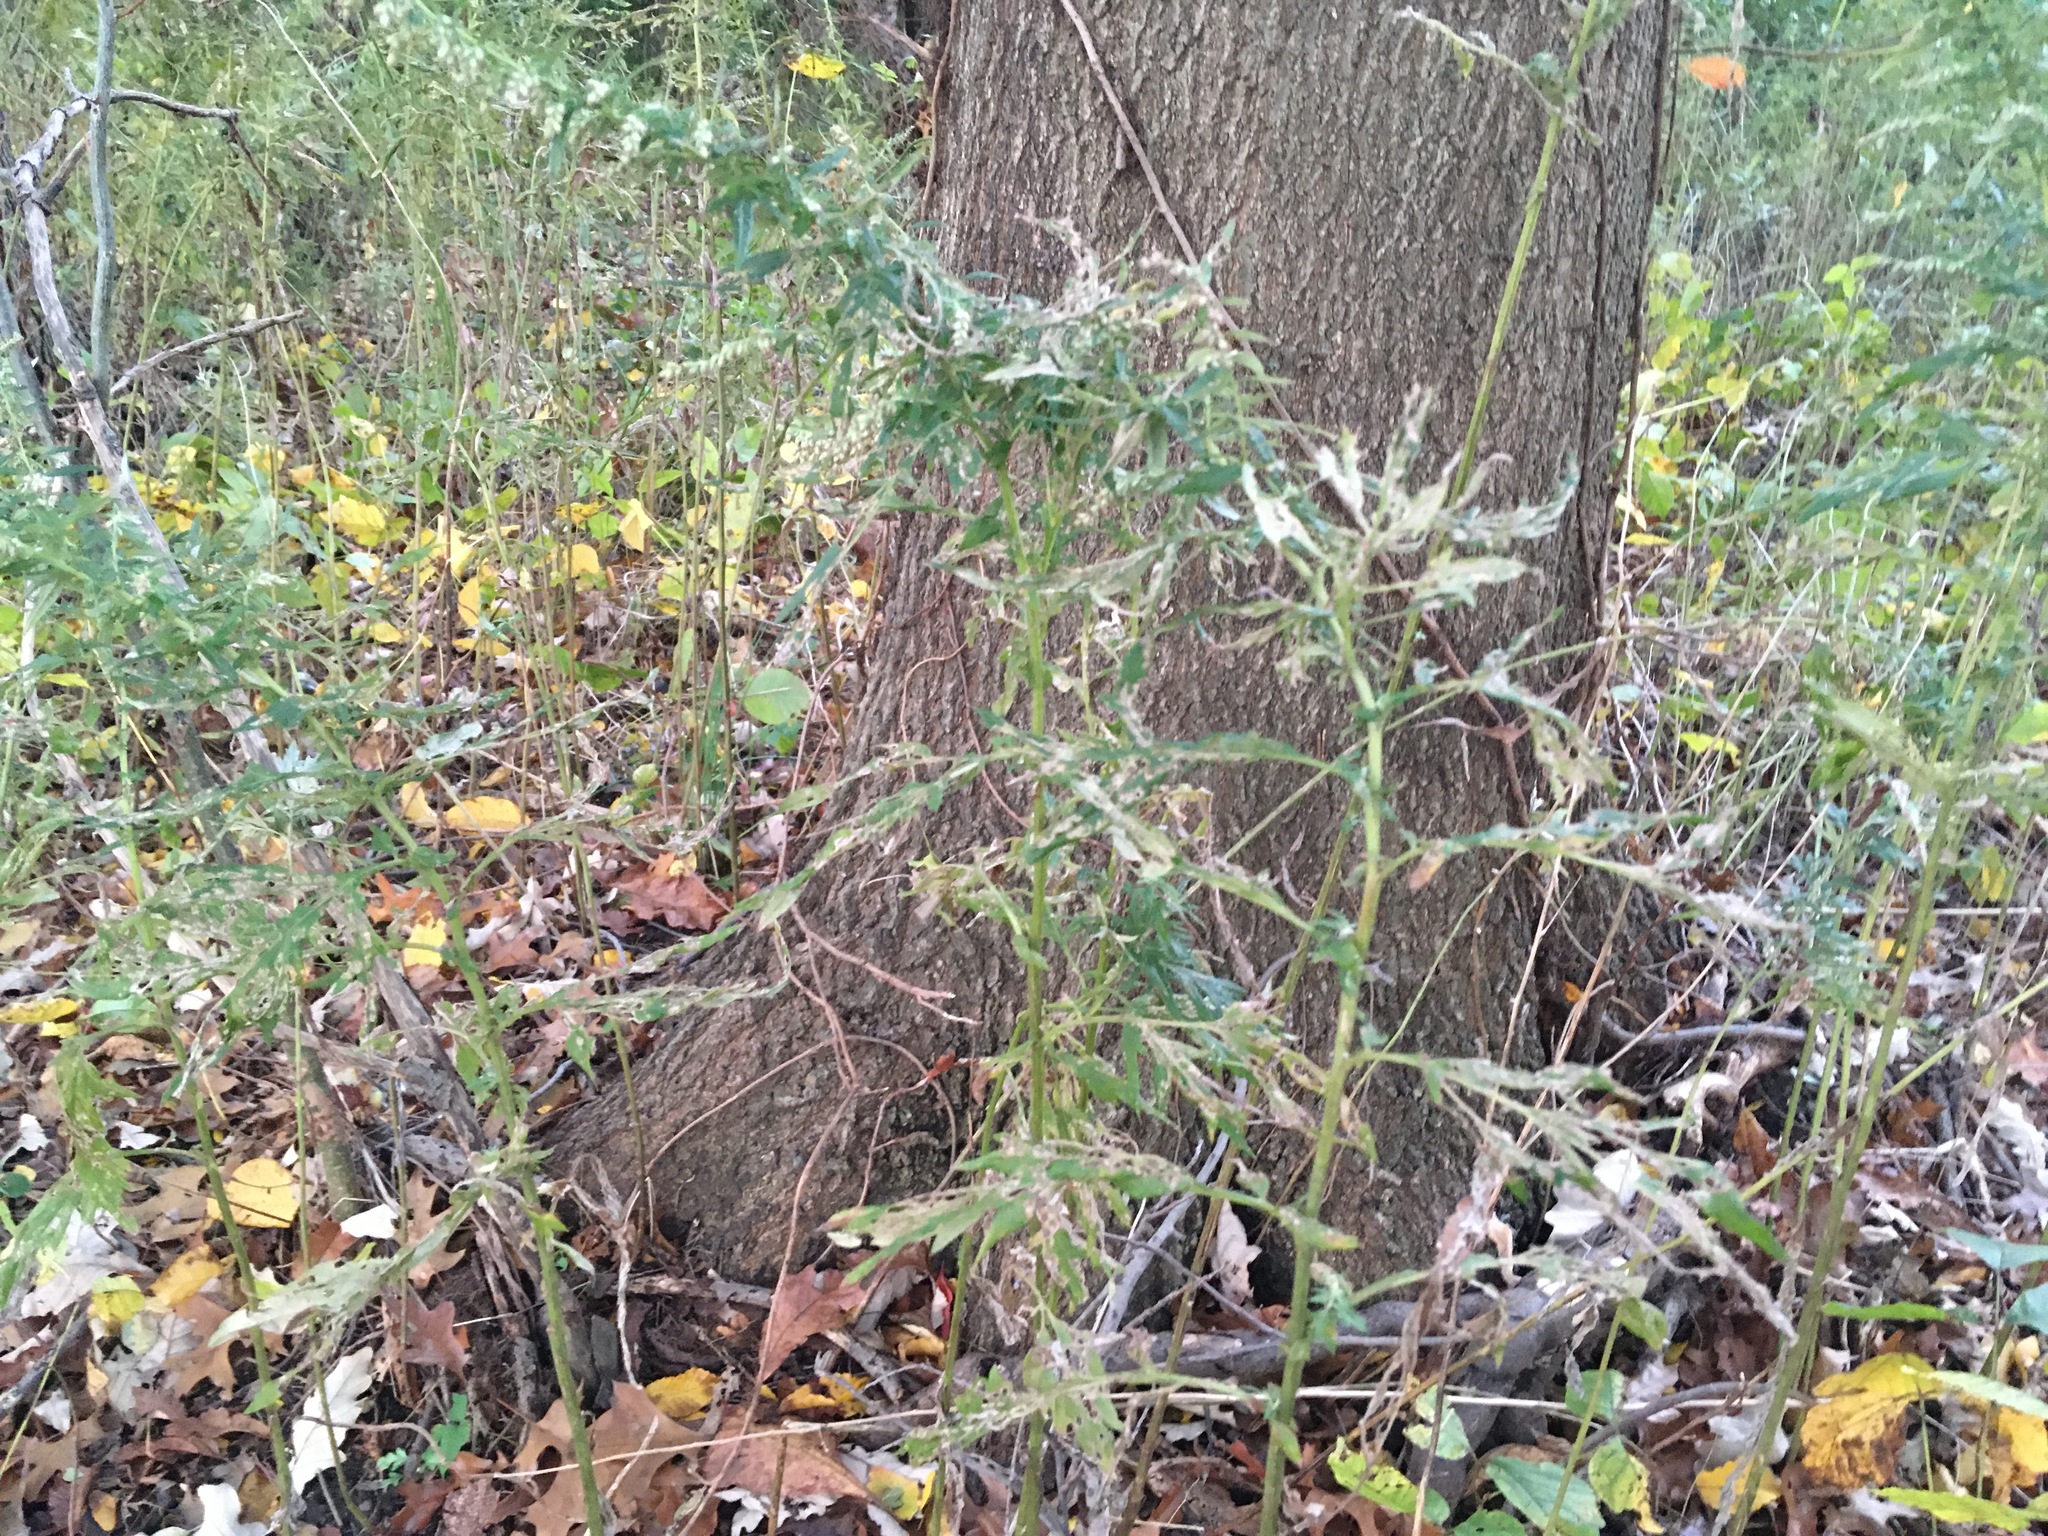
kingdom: Plantae
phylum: Tracheophyta
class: Magnoliopsida
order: Asterales
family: Asteraceae
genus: Artemisia
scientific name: Artemisia vulgaris
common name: Mugwort
